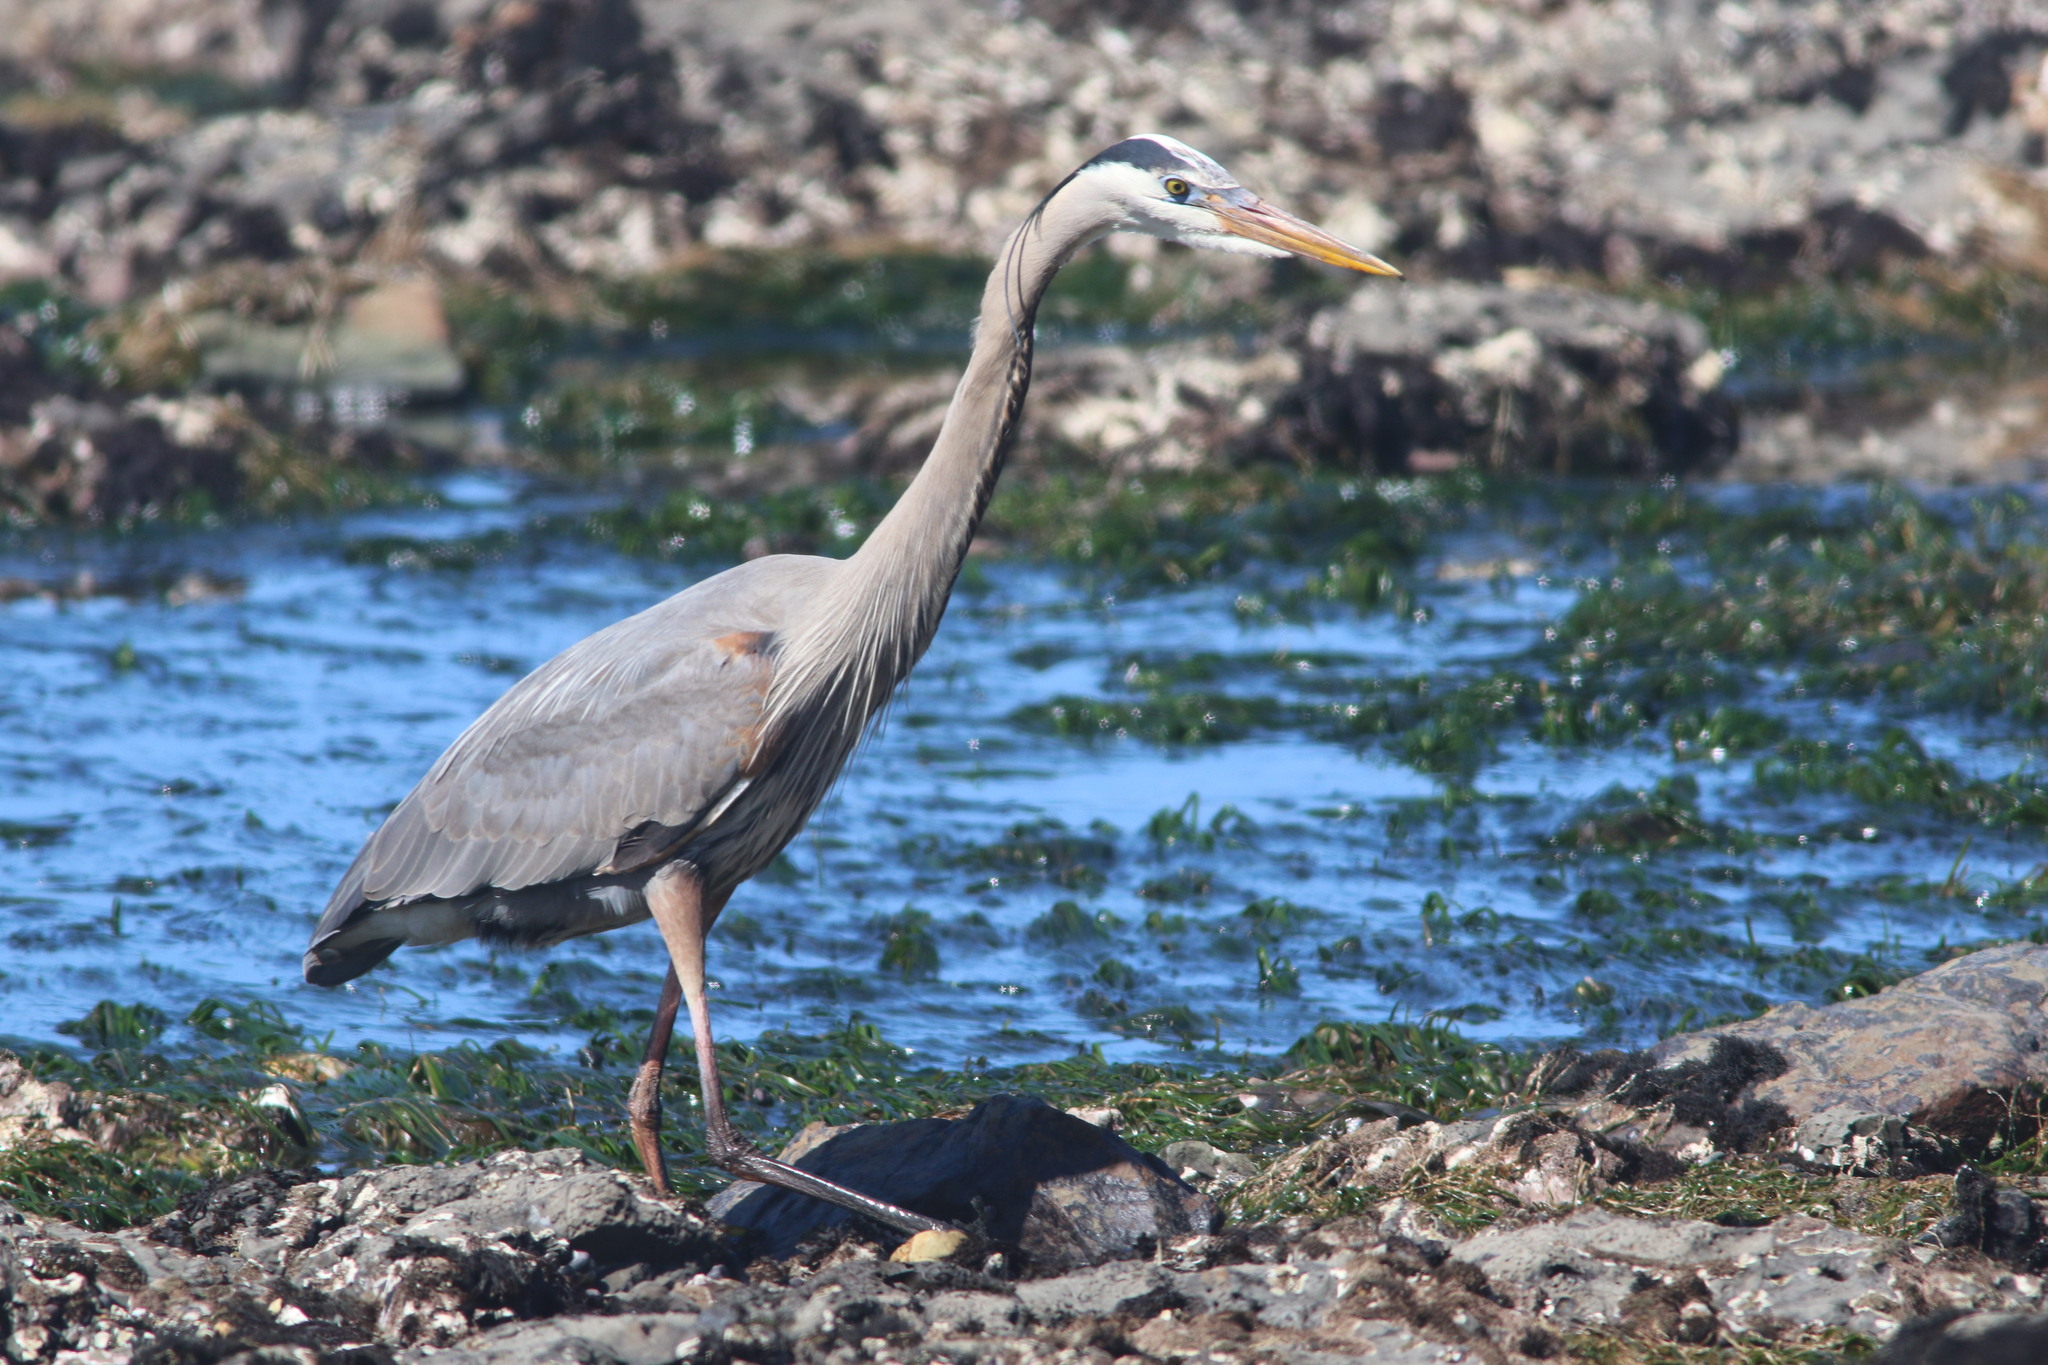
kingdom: Animalia
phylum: Chordata
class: Aves
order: Pelecaniformes
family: Ardeidae
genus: Ardea
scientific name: Ardea herodias
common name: Great blue heron
